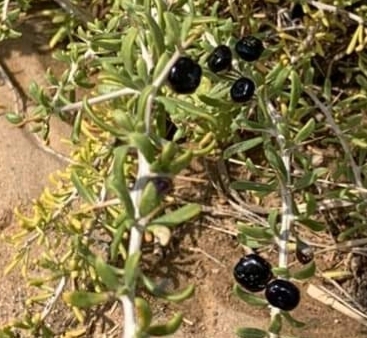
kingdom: Plantae
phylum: Tracheophyta
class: Magnoliopsida
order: Solanales
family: Solanaceae
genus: Lycium
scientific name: Lycium ruthenicum
